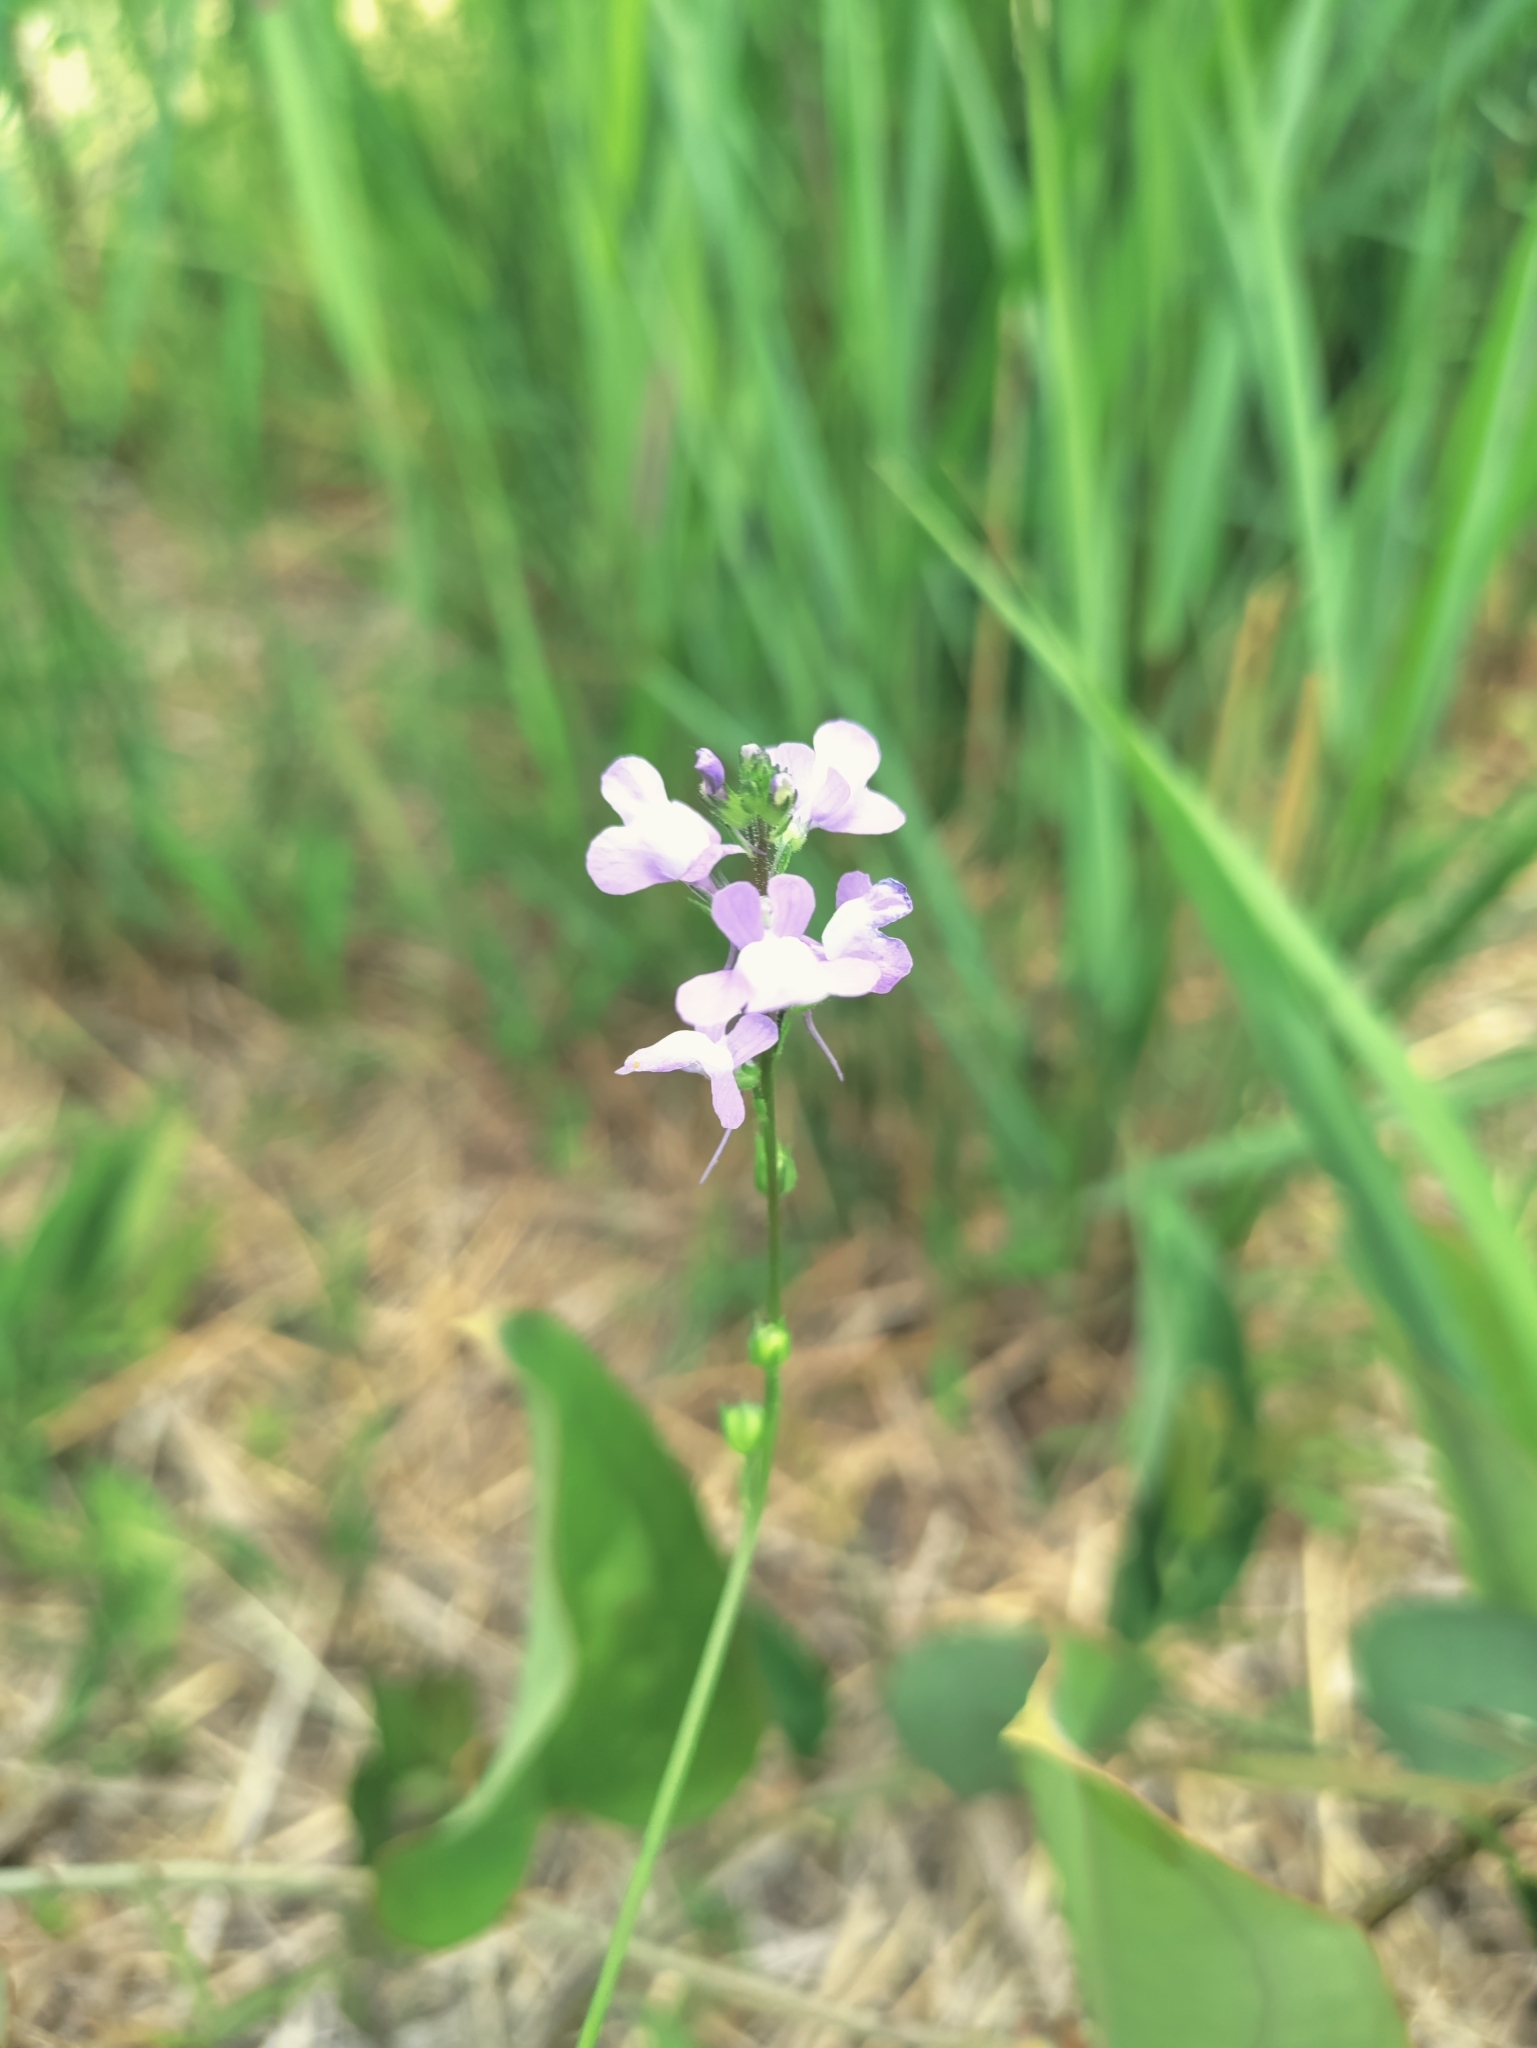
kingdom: Plantae
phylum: Tracheophyta
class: Magnoliopsida
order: Lamiales
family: Plantaginaceae
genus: Nuttallanthus
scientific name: Nuttallanthus canadensis
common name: Blue toadflax
